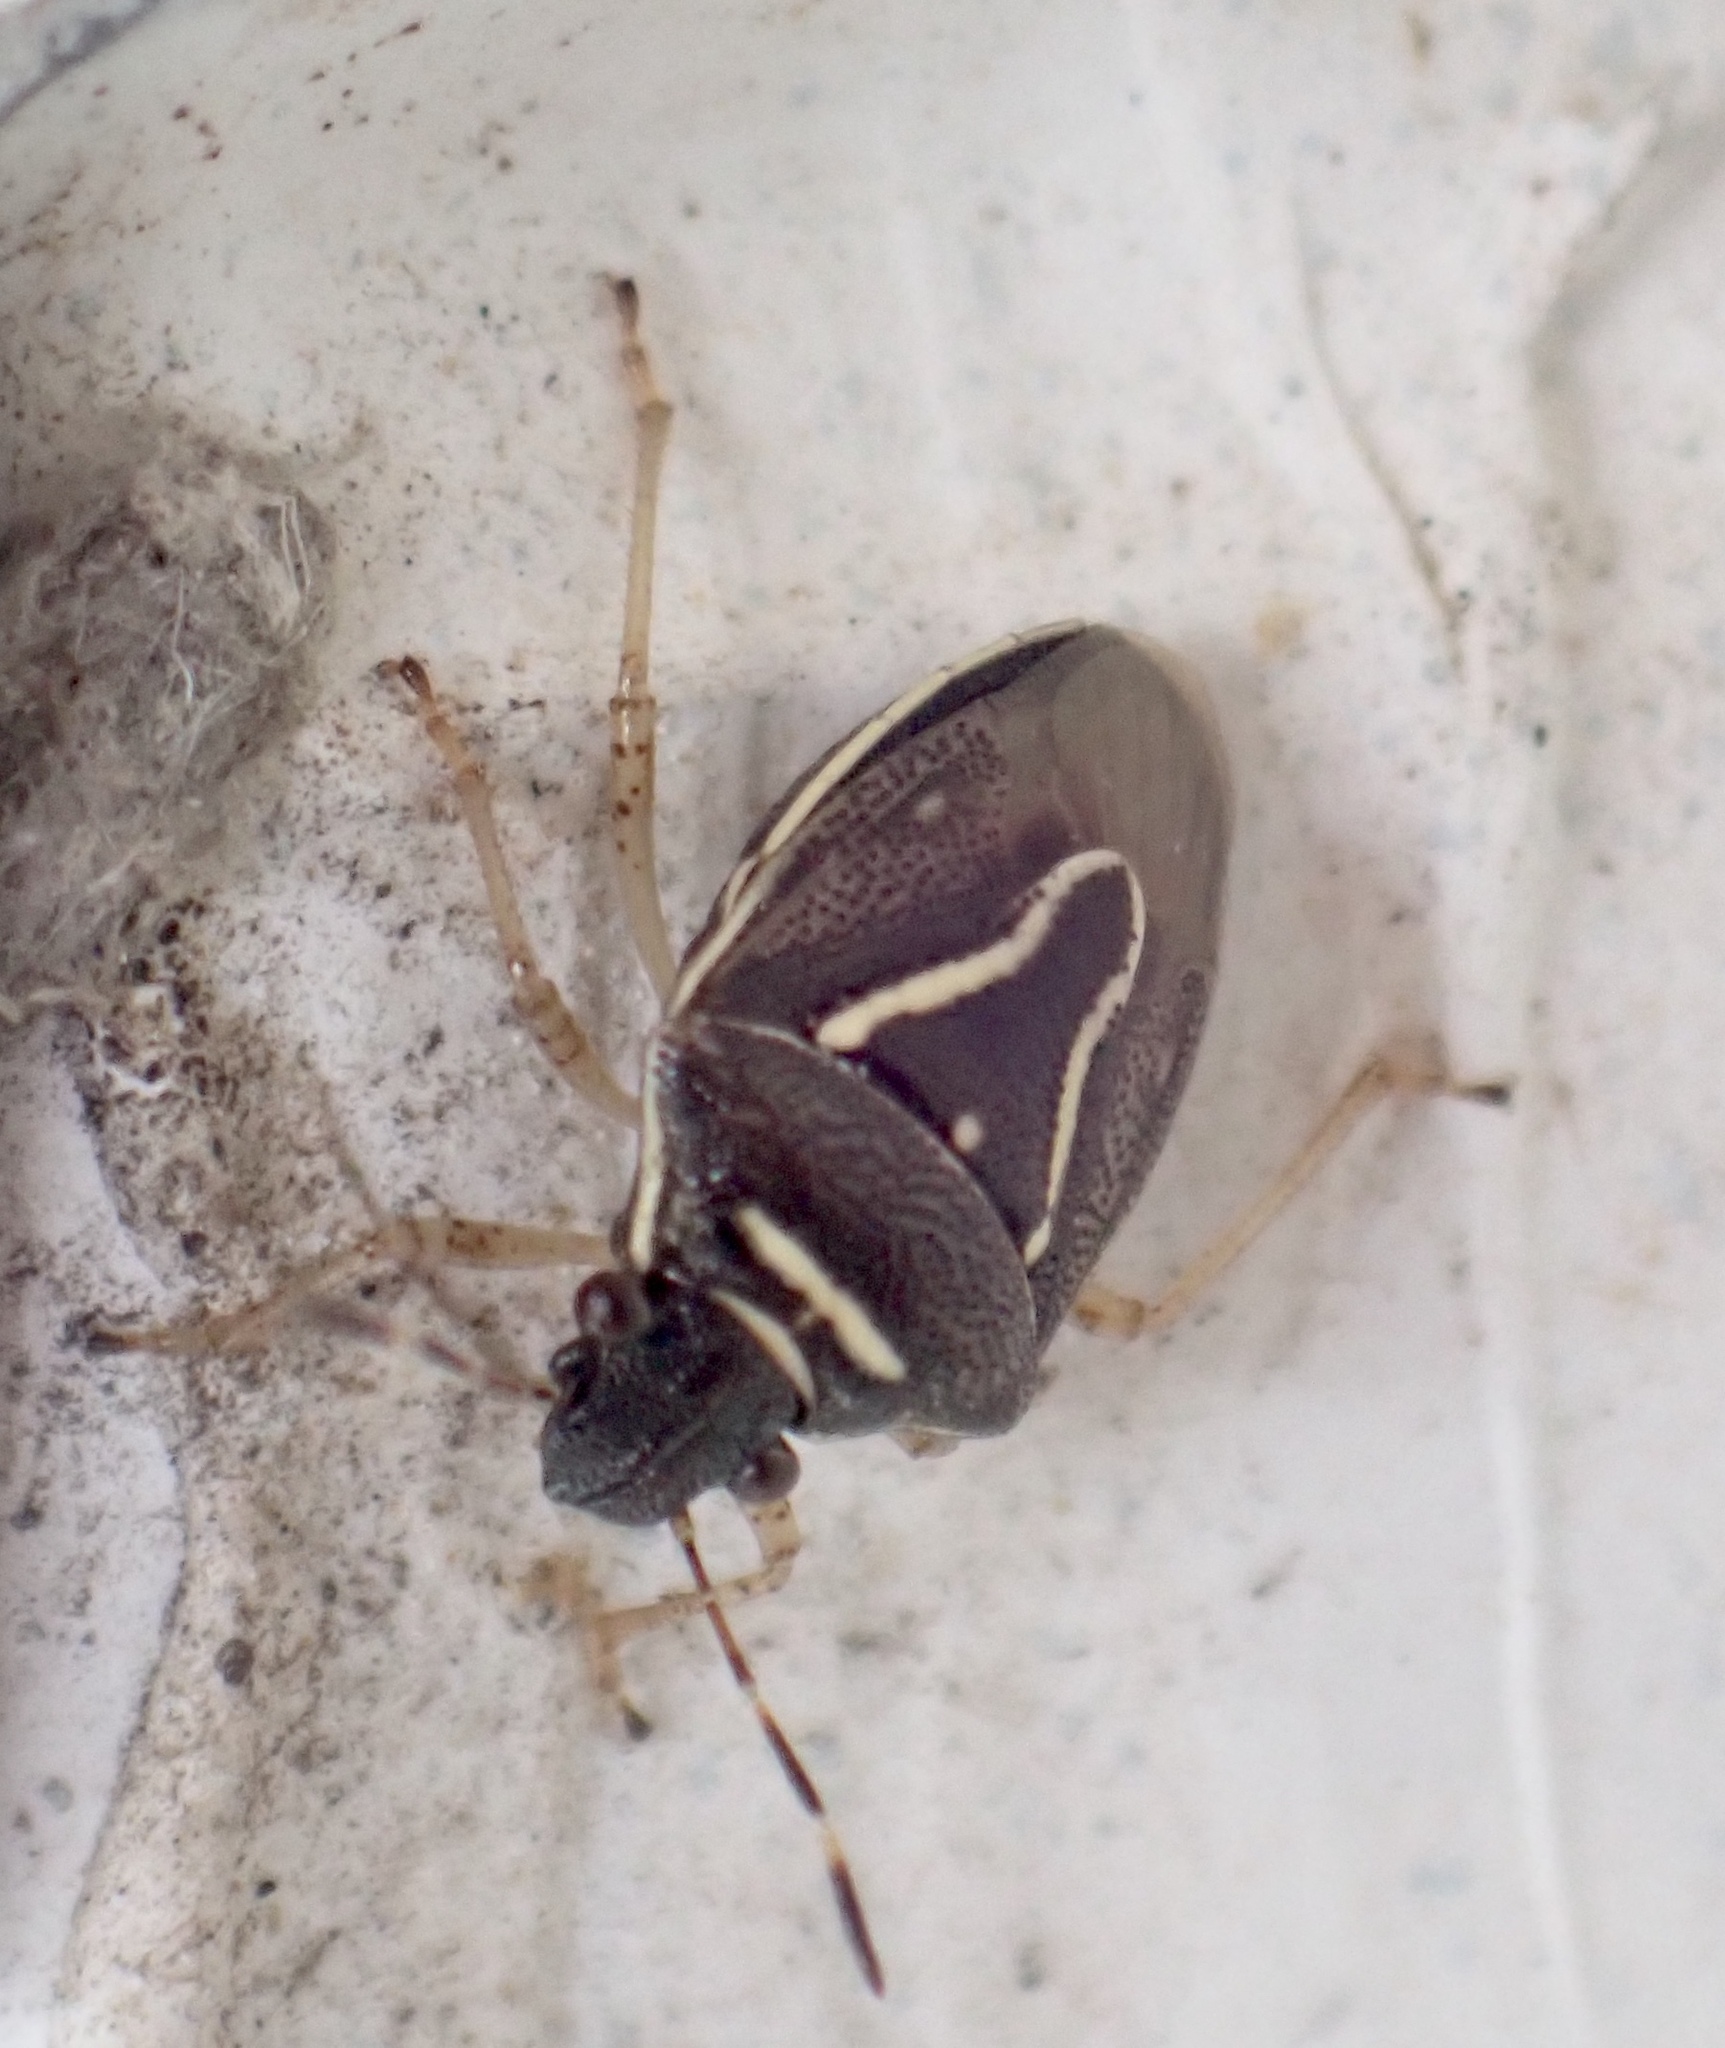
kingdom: Animalia
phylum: Arthropoda
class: Insecta
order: Hemiptera
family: Pentatomidae
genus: Mormidea
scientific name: Mormidea lugens
